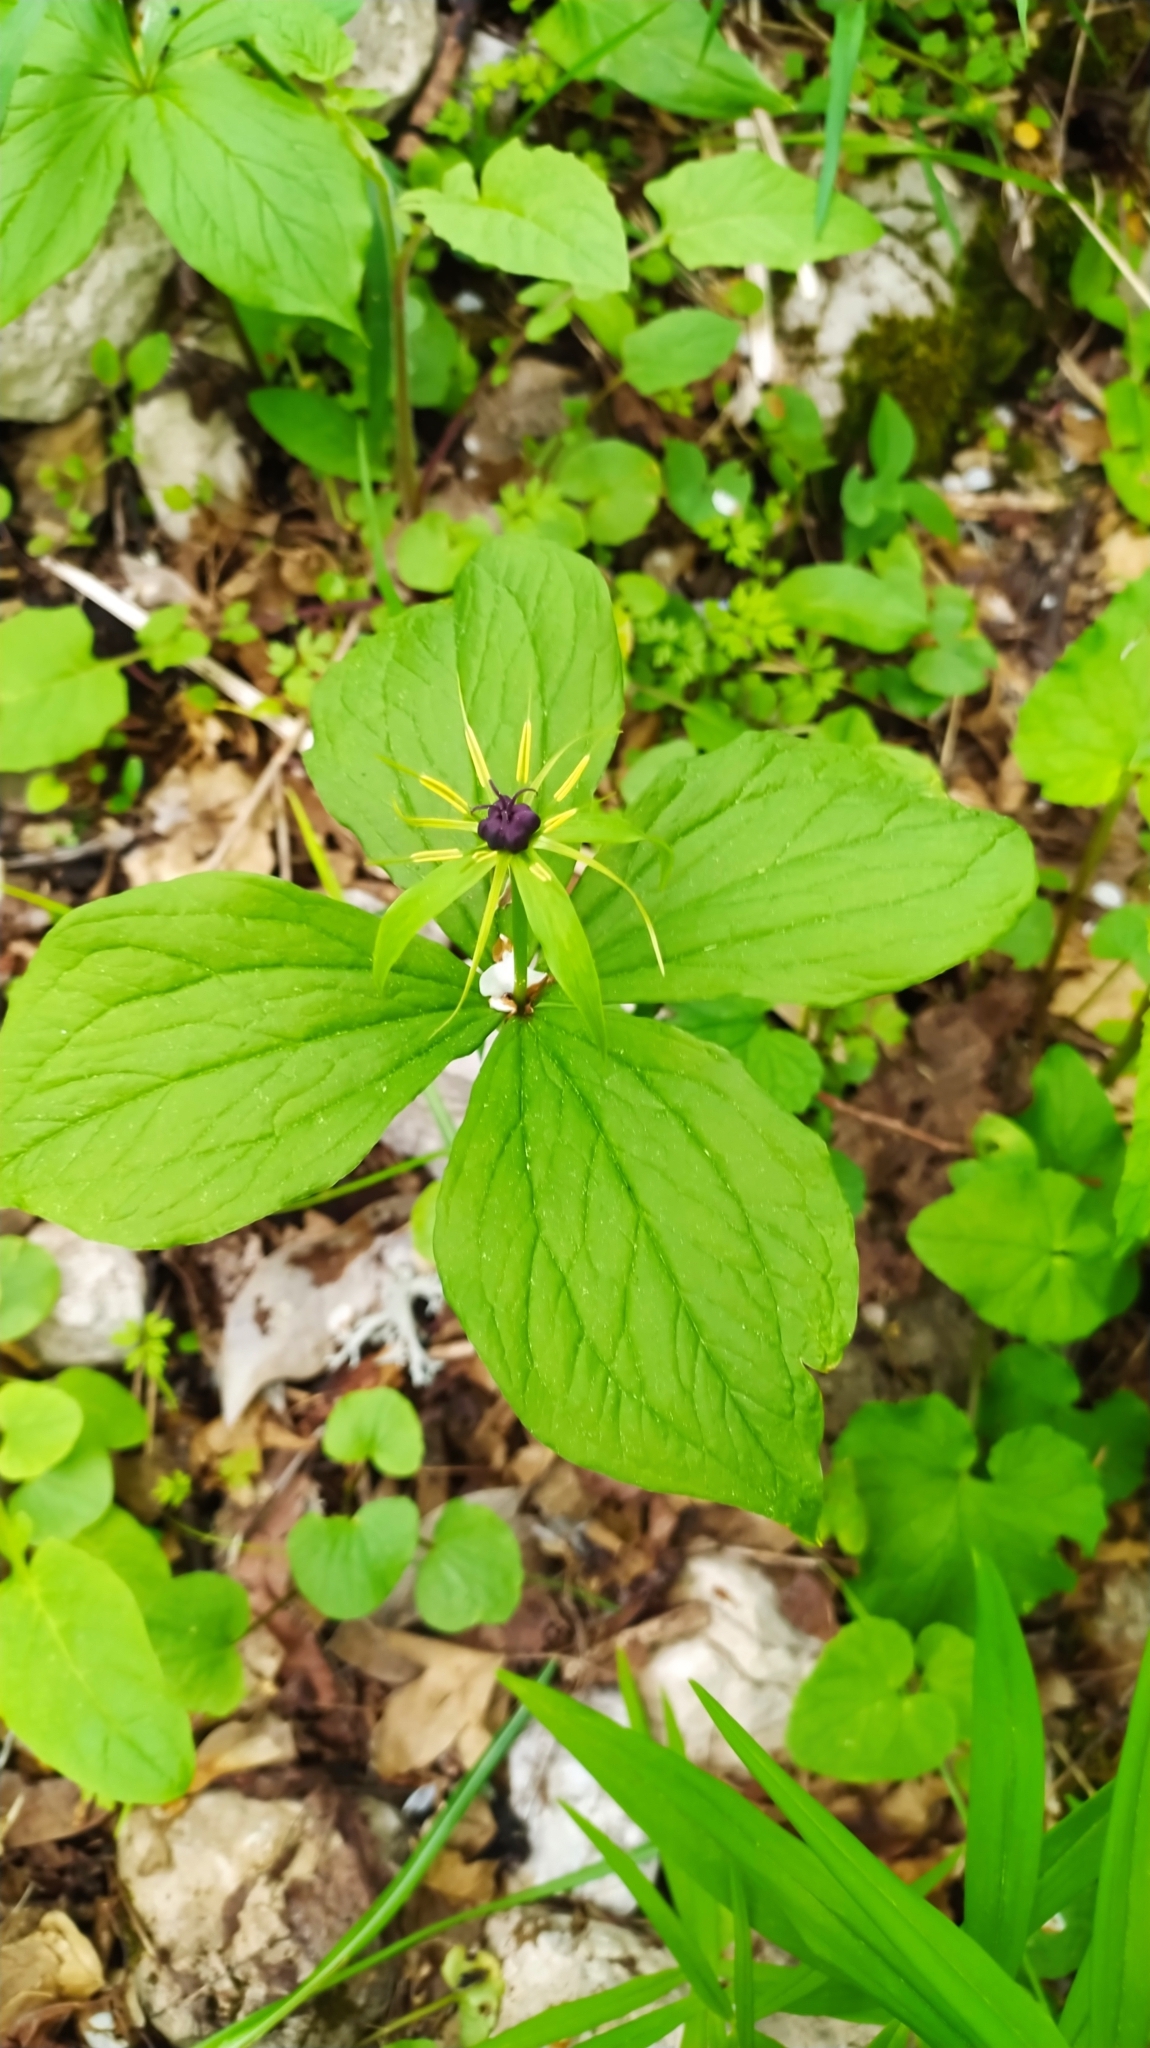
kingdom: Plantae
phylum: Tracheophyta
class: Liliopsida
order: Liliales
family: Melanthiaceae
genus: Paris
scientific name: Paris quadrifolia
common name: Herb-paris
